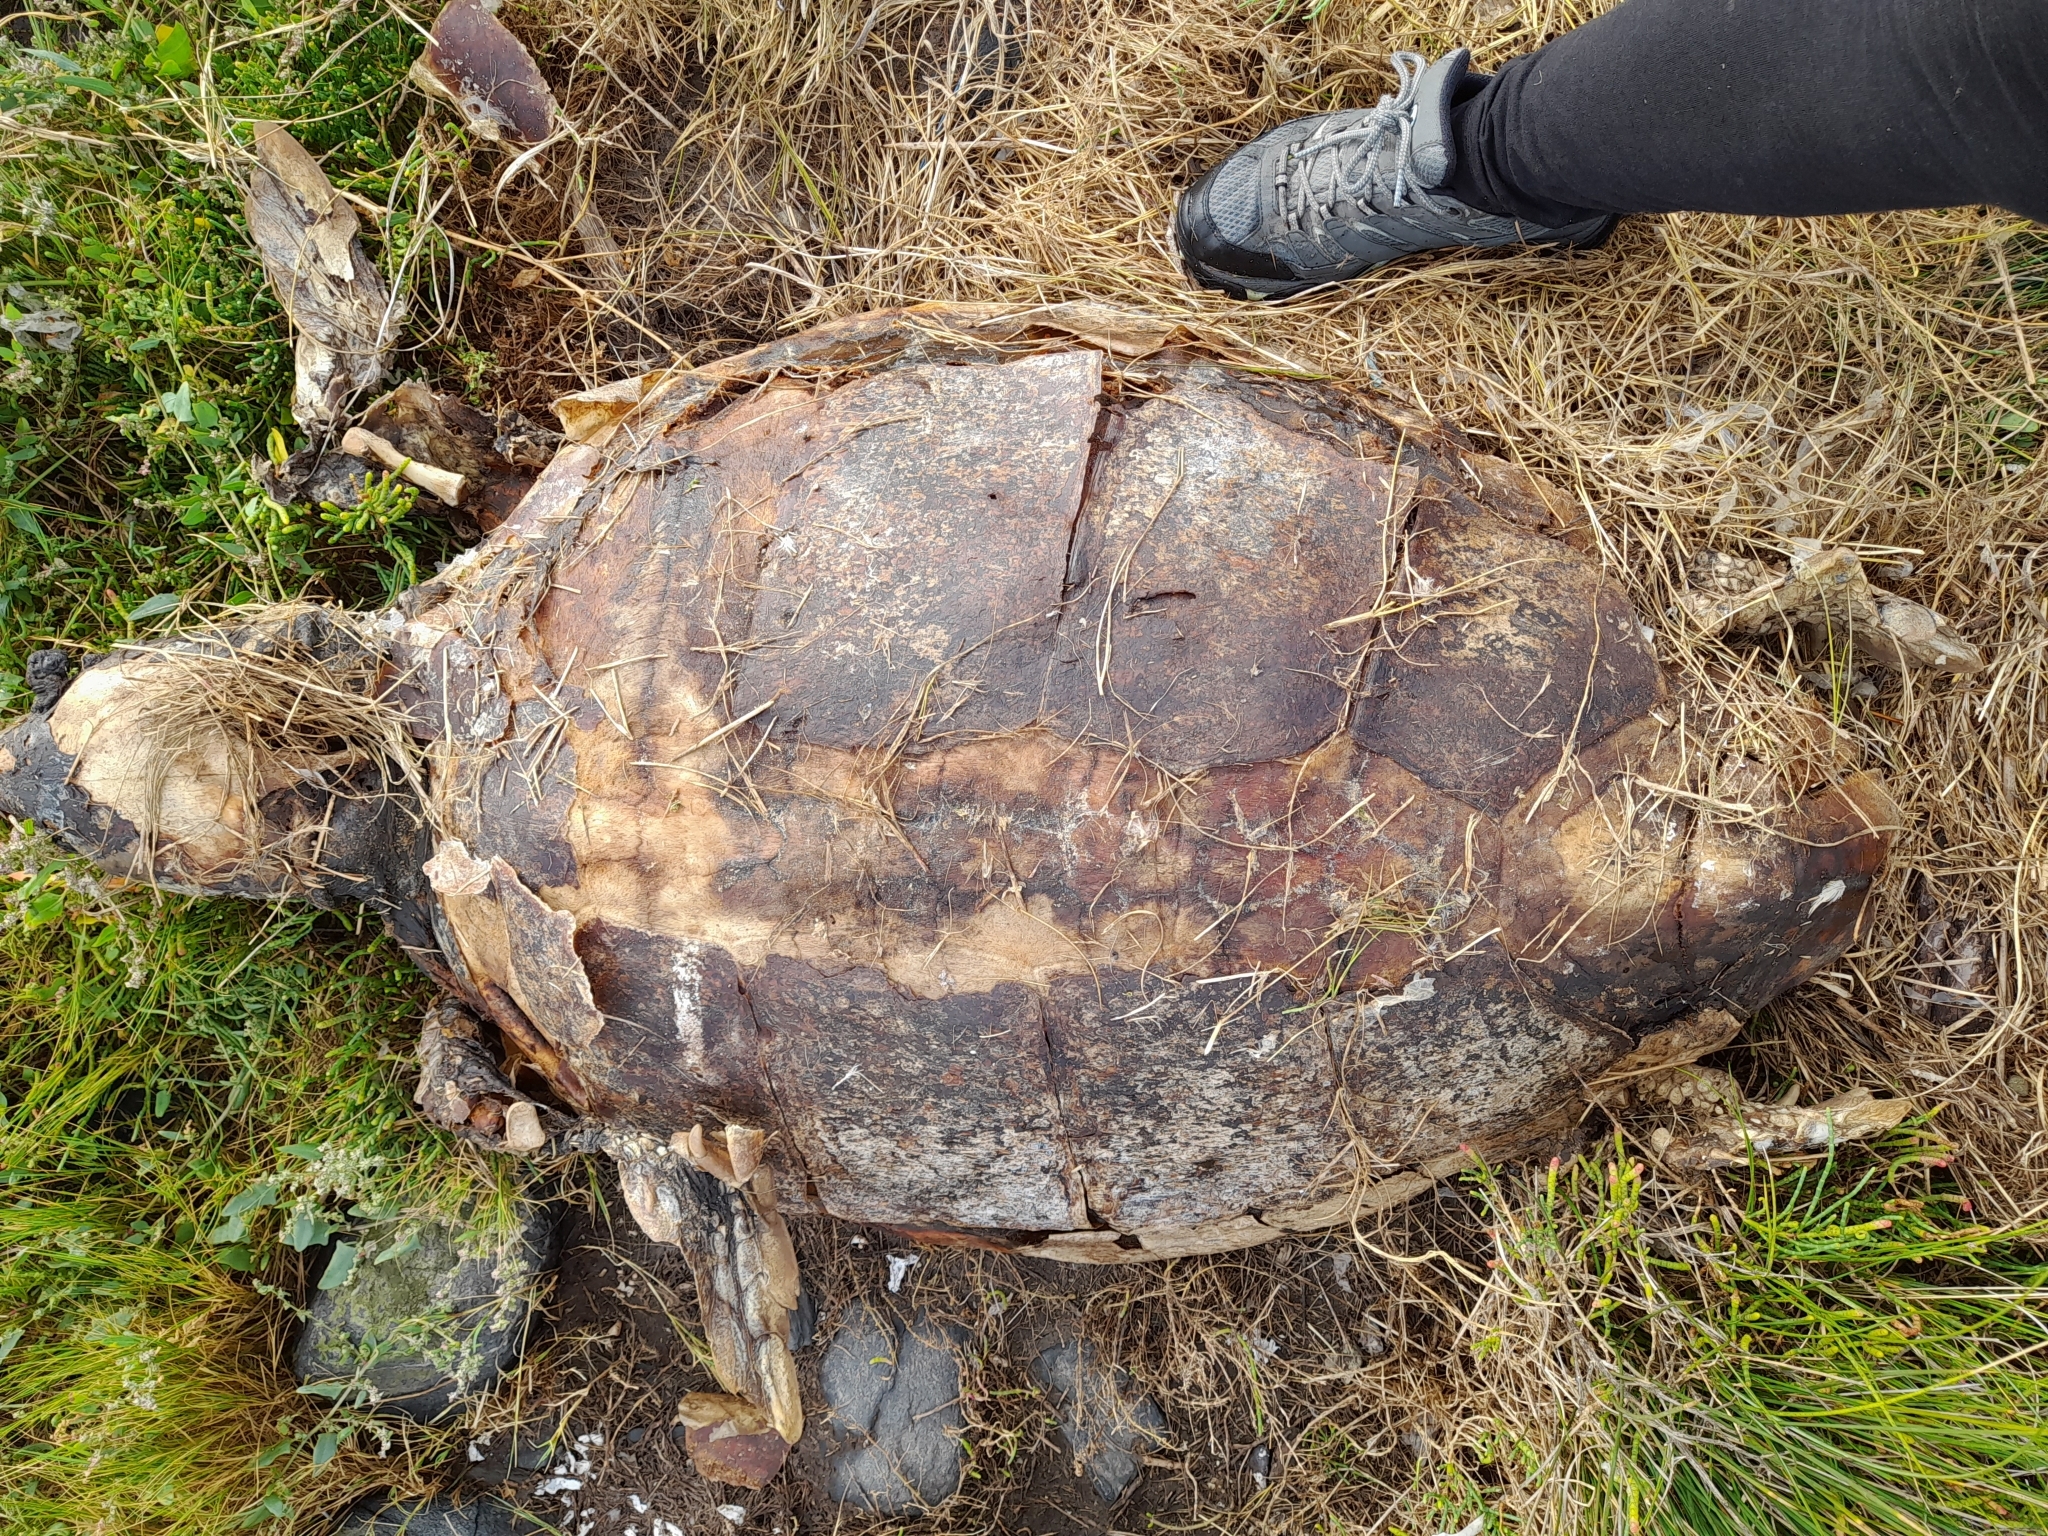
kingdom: Animalia
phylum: Chordata
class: Testudines
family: Cheloniidae
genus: Caretta
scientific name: Caretta caretta
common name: Loggerhead sea turtle
